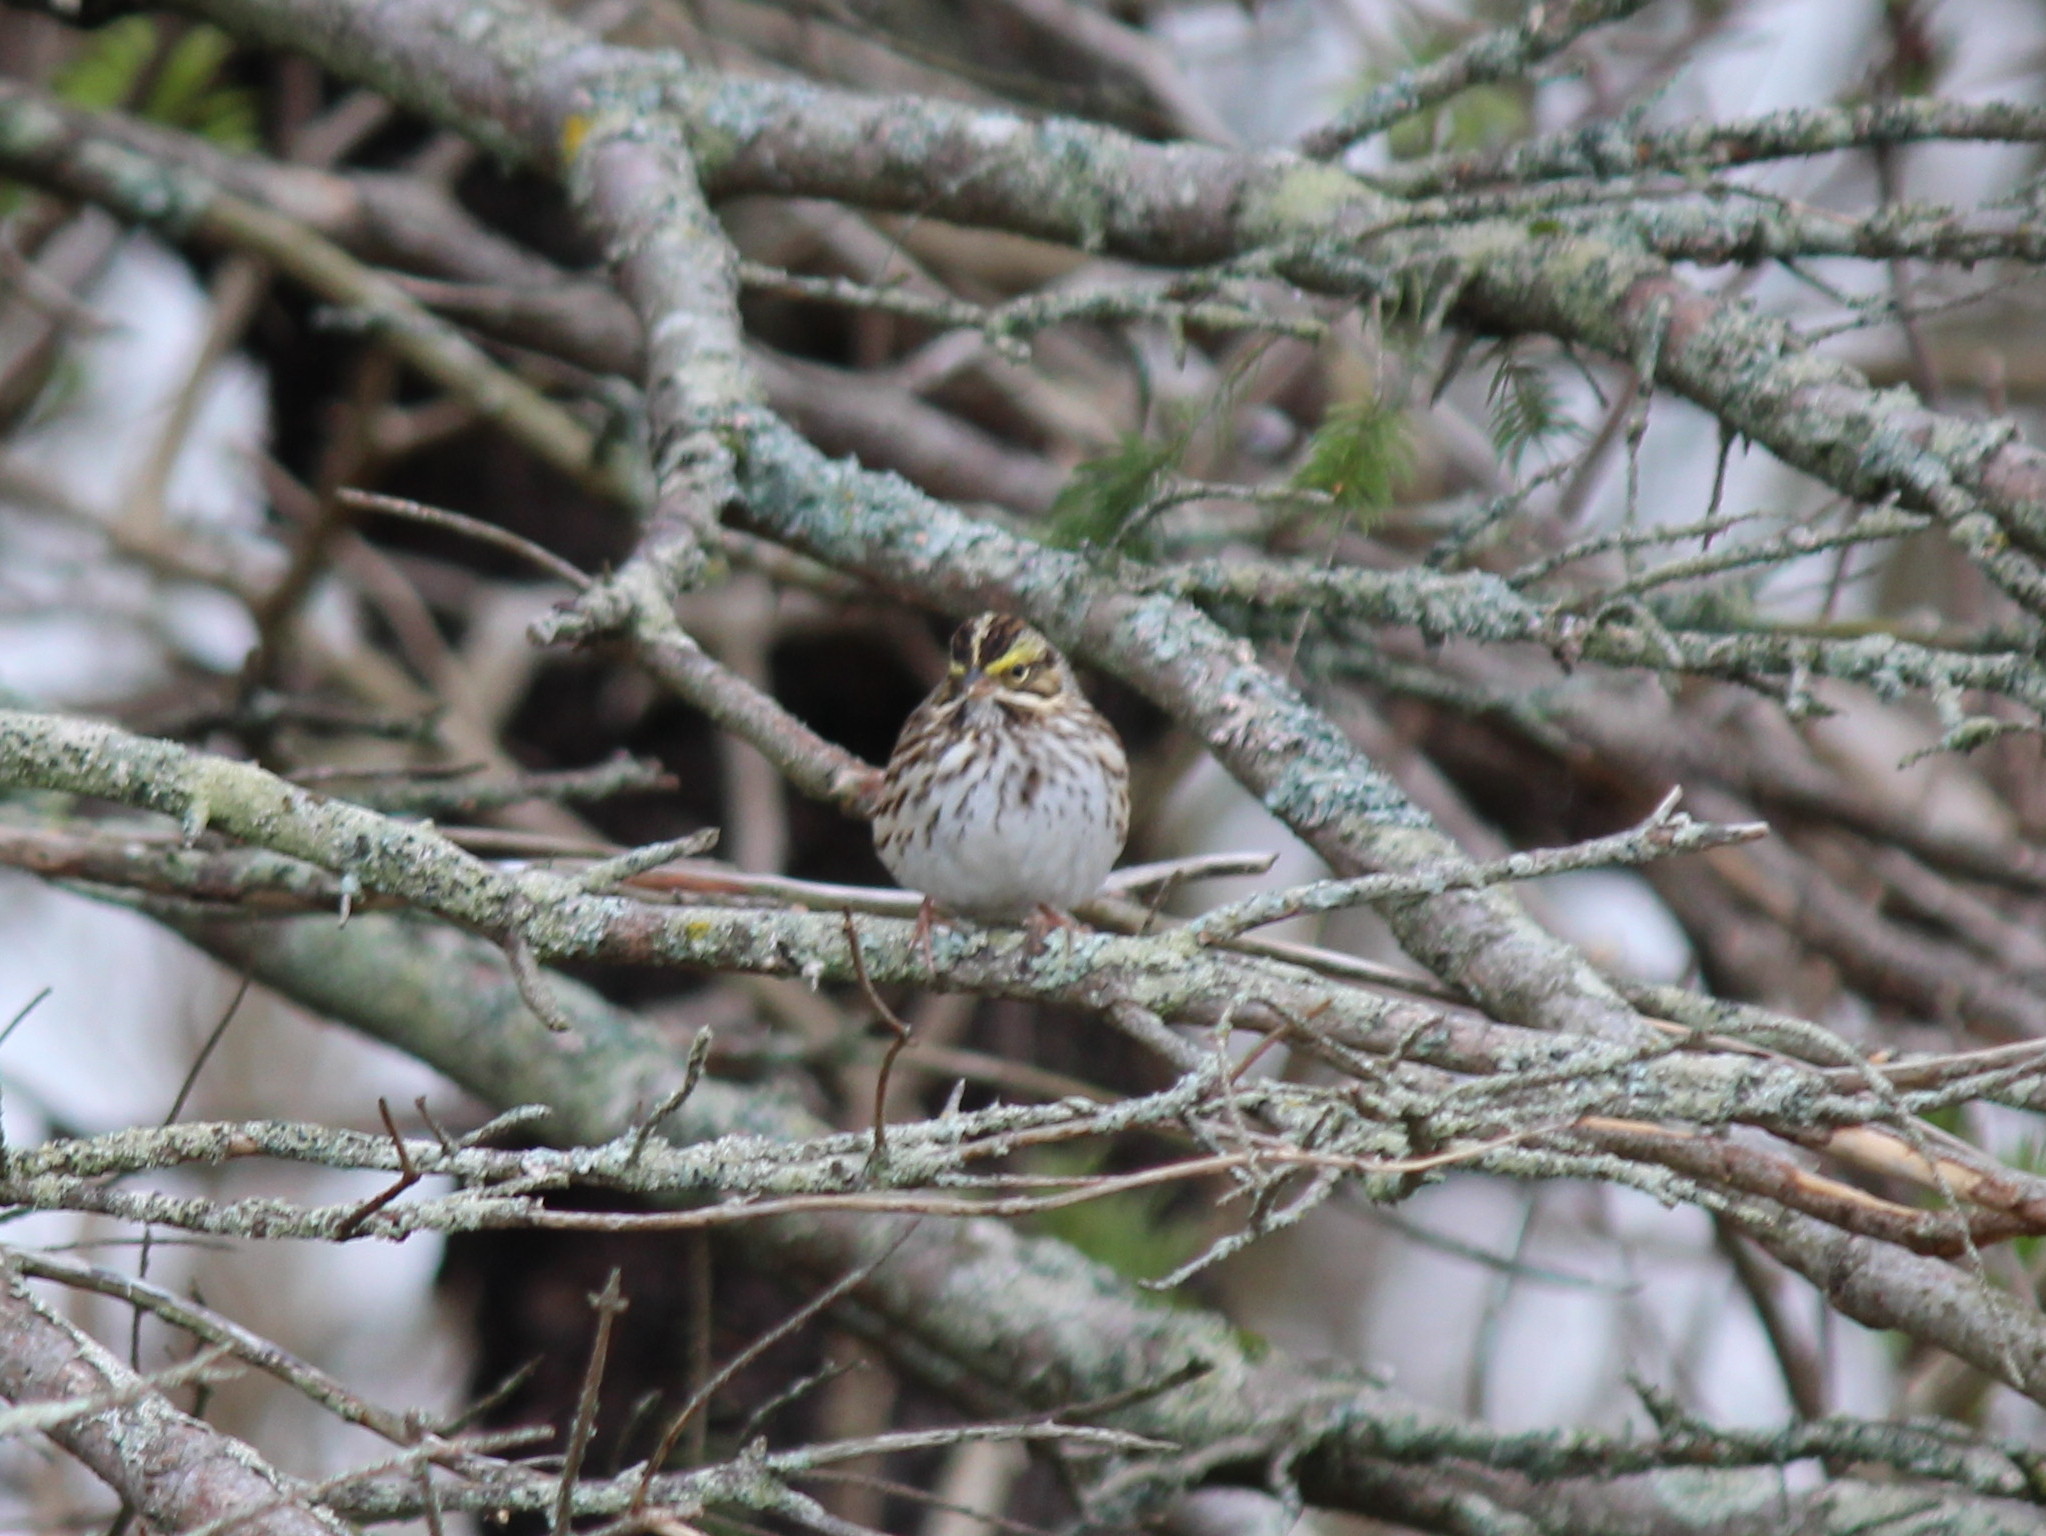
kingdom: Animalia
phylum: Chordata
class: Aves
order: Passeriformes
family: Passerellidae
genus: Passerculus
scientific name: Passerculus sandwichensis
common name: Savannah sparrow
